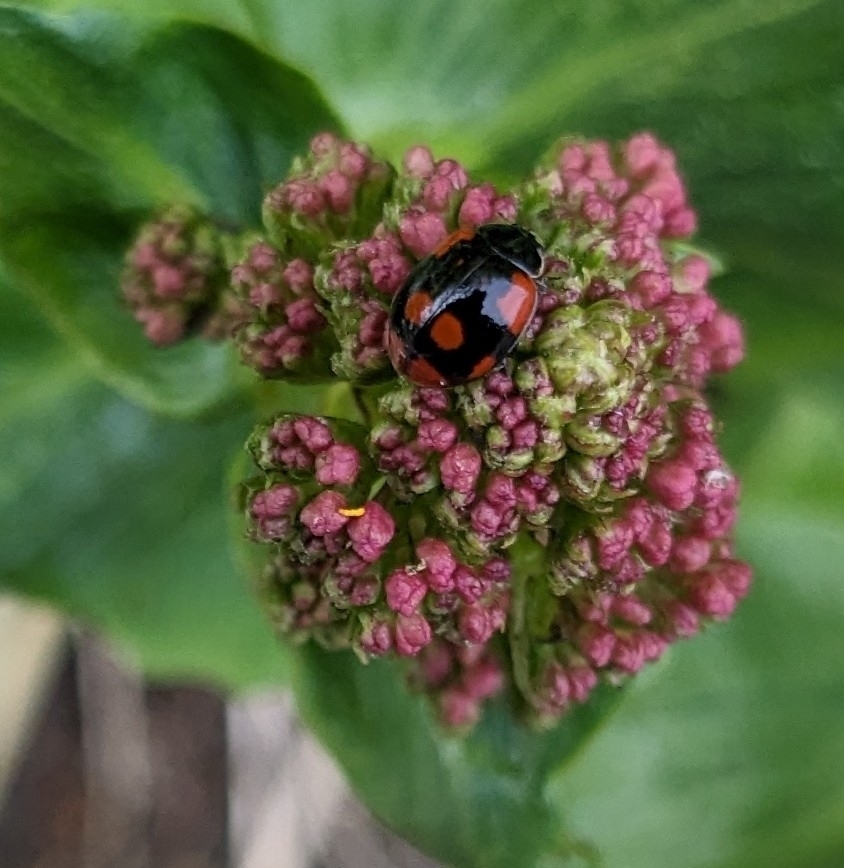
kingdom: Animalia
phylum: Arthropoda
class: Insecta
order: Coleoptera
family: Coccinellidae
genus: Adalia
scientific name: Adalia bipunctata
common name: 2-spot ladybird
